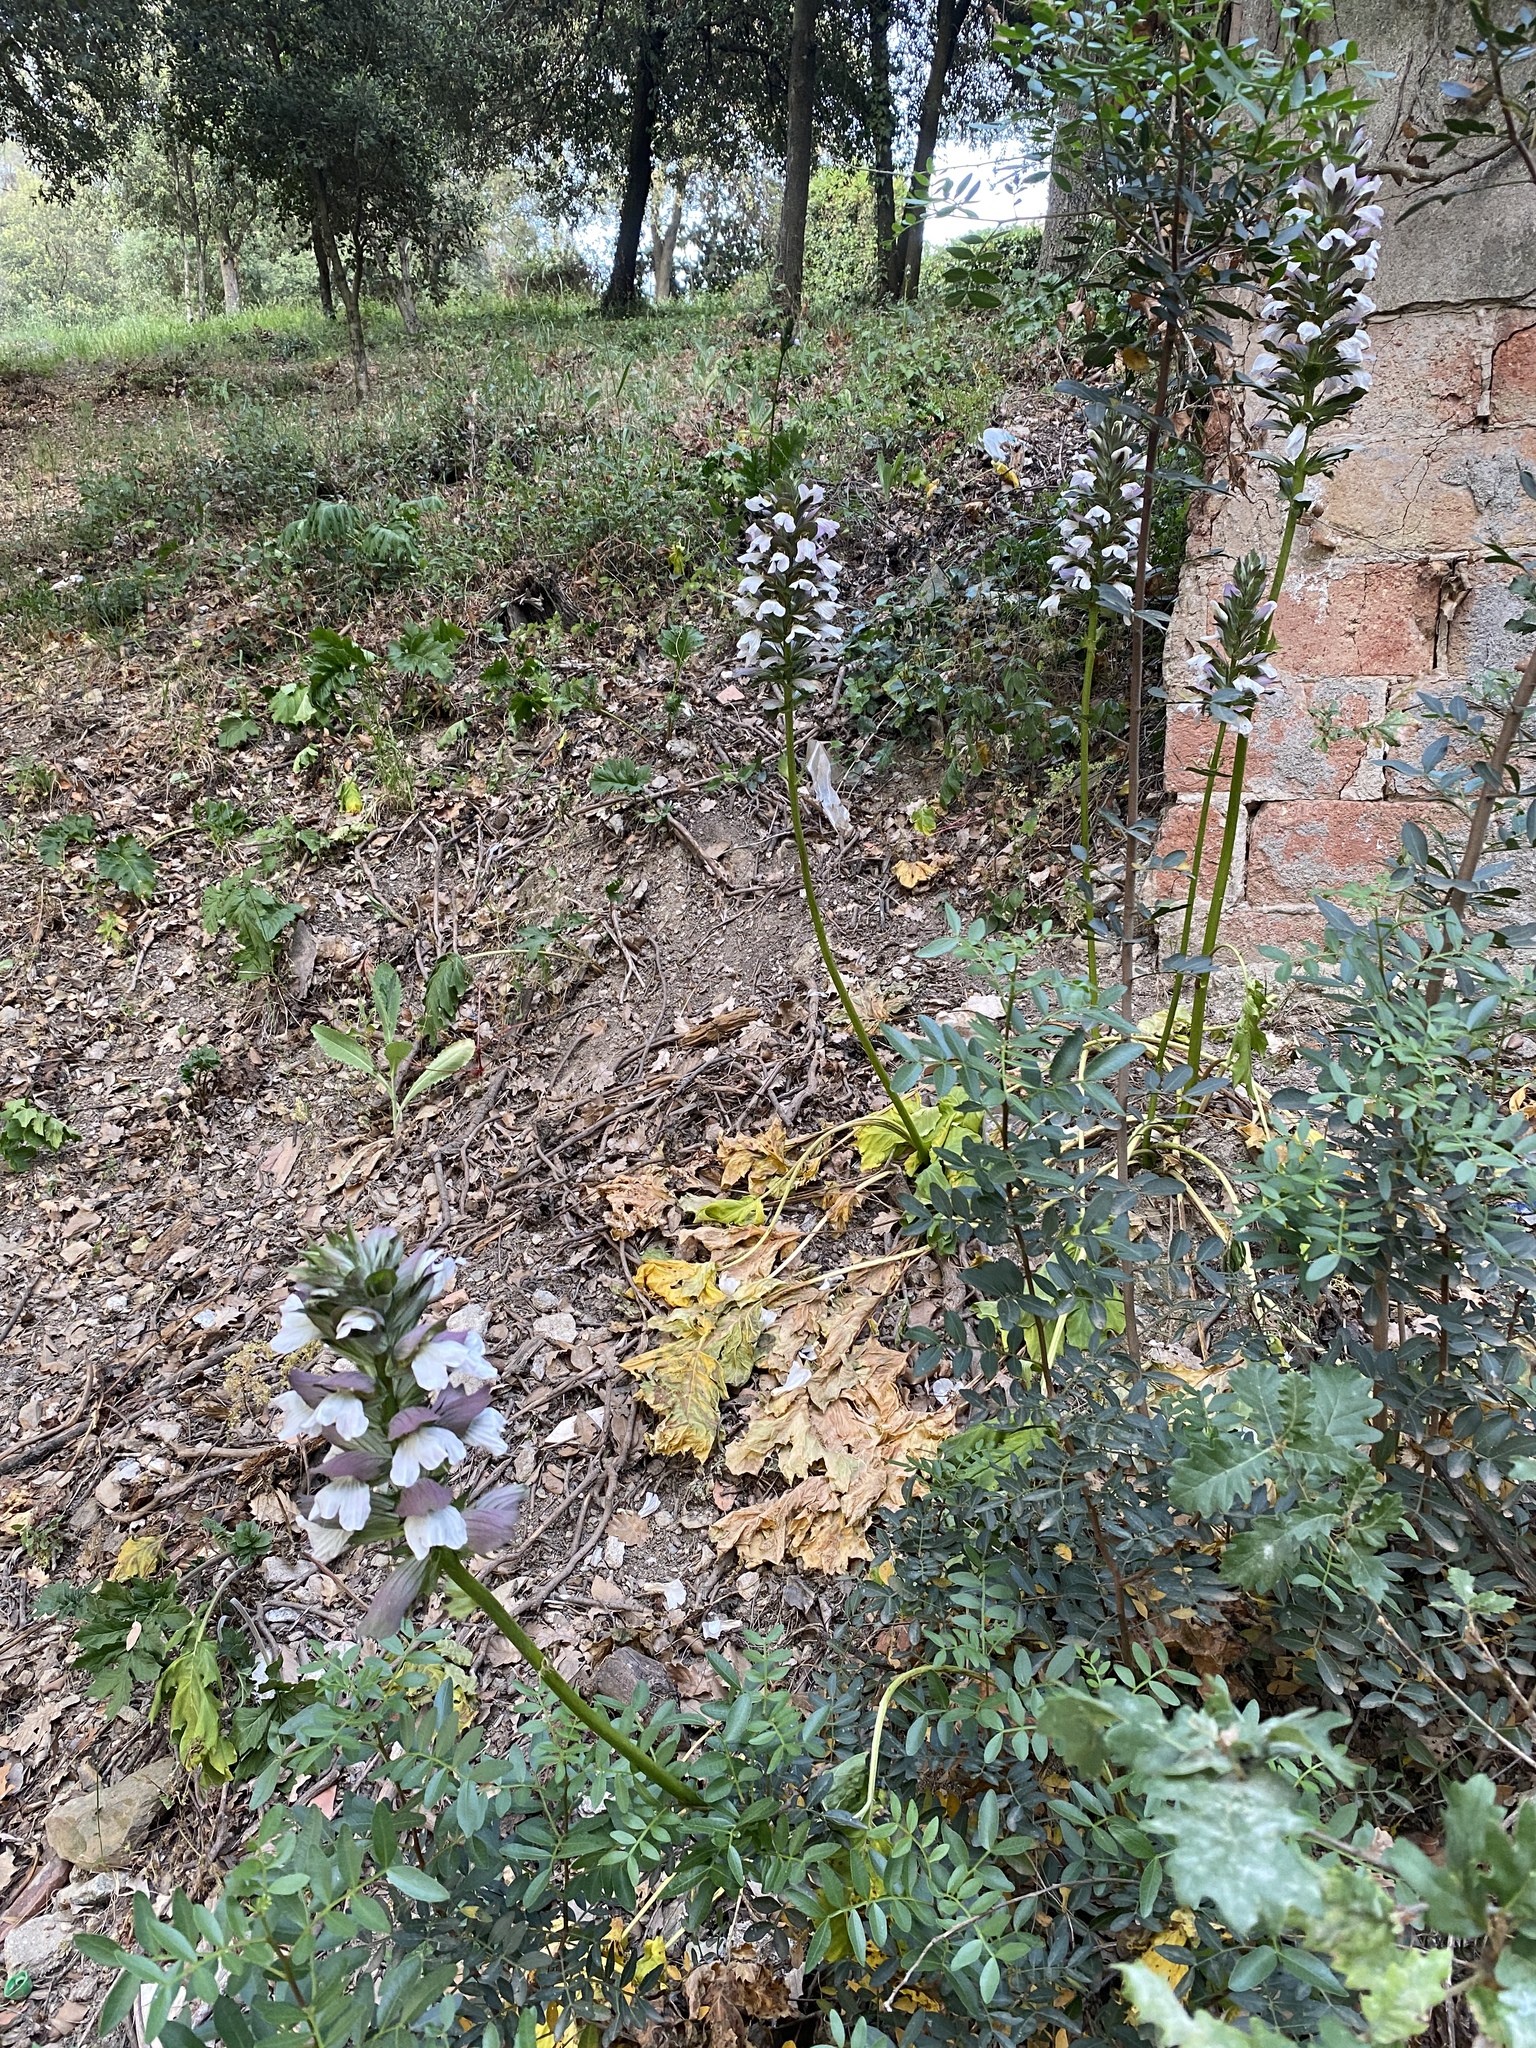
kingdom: Plantae
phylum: Tracheophyta
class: Magnoliopsida
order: Lamiales
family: Acanthaceae
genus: Acanthus
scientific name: Acanthus mollis
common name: Bear's-breech
